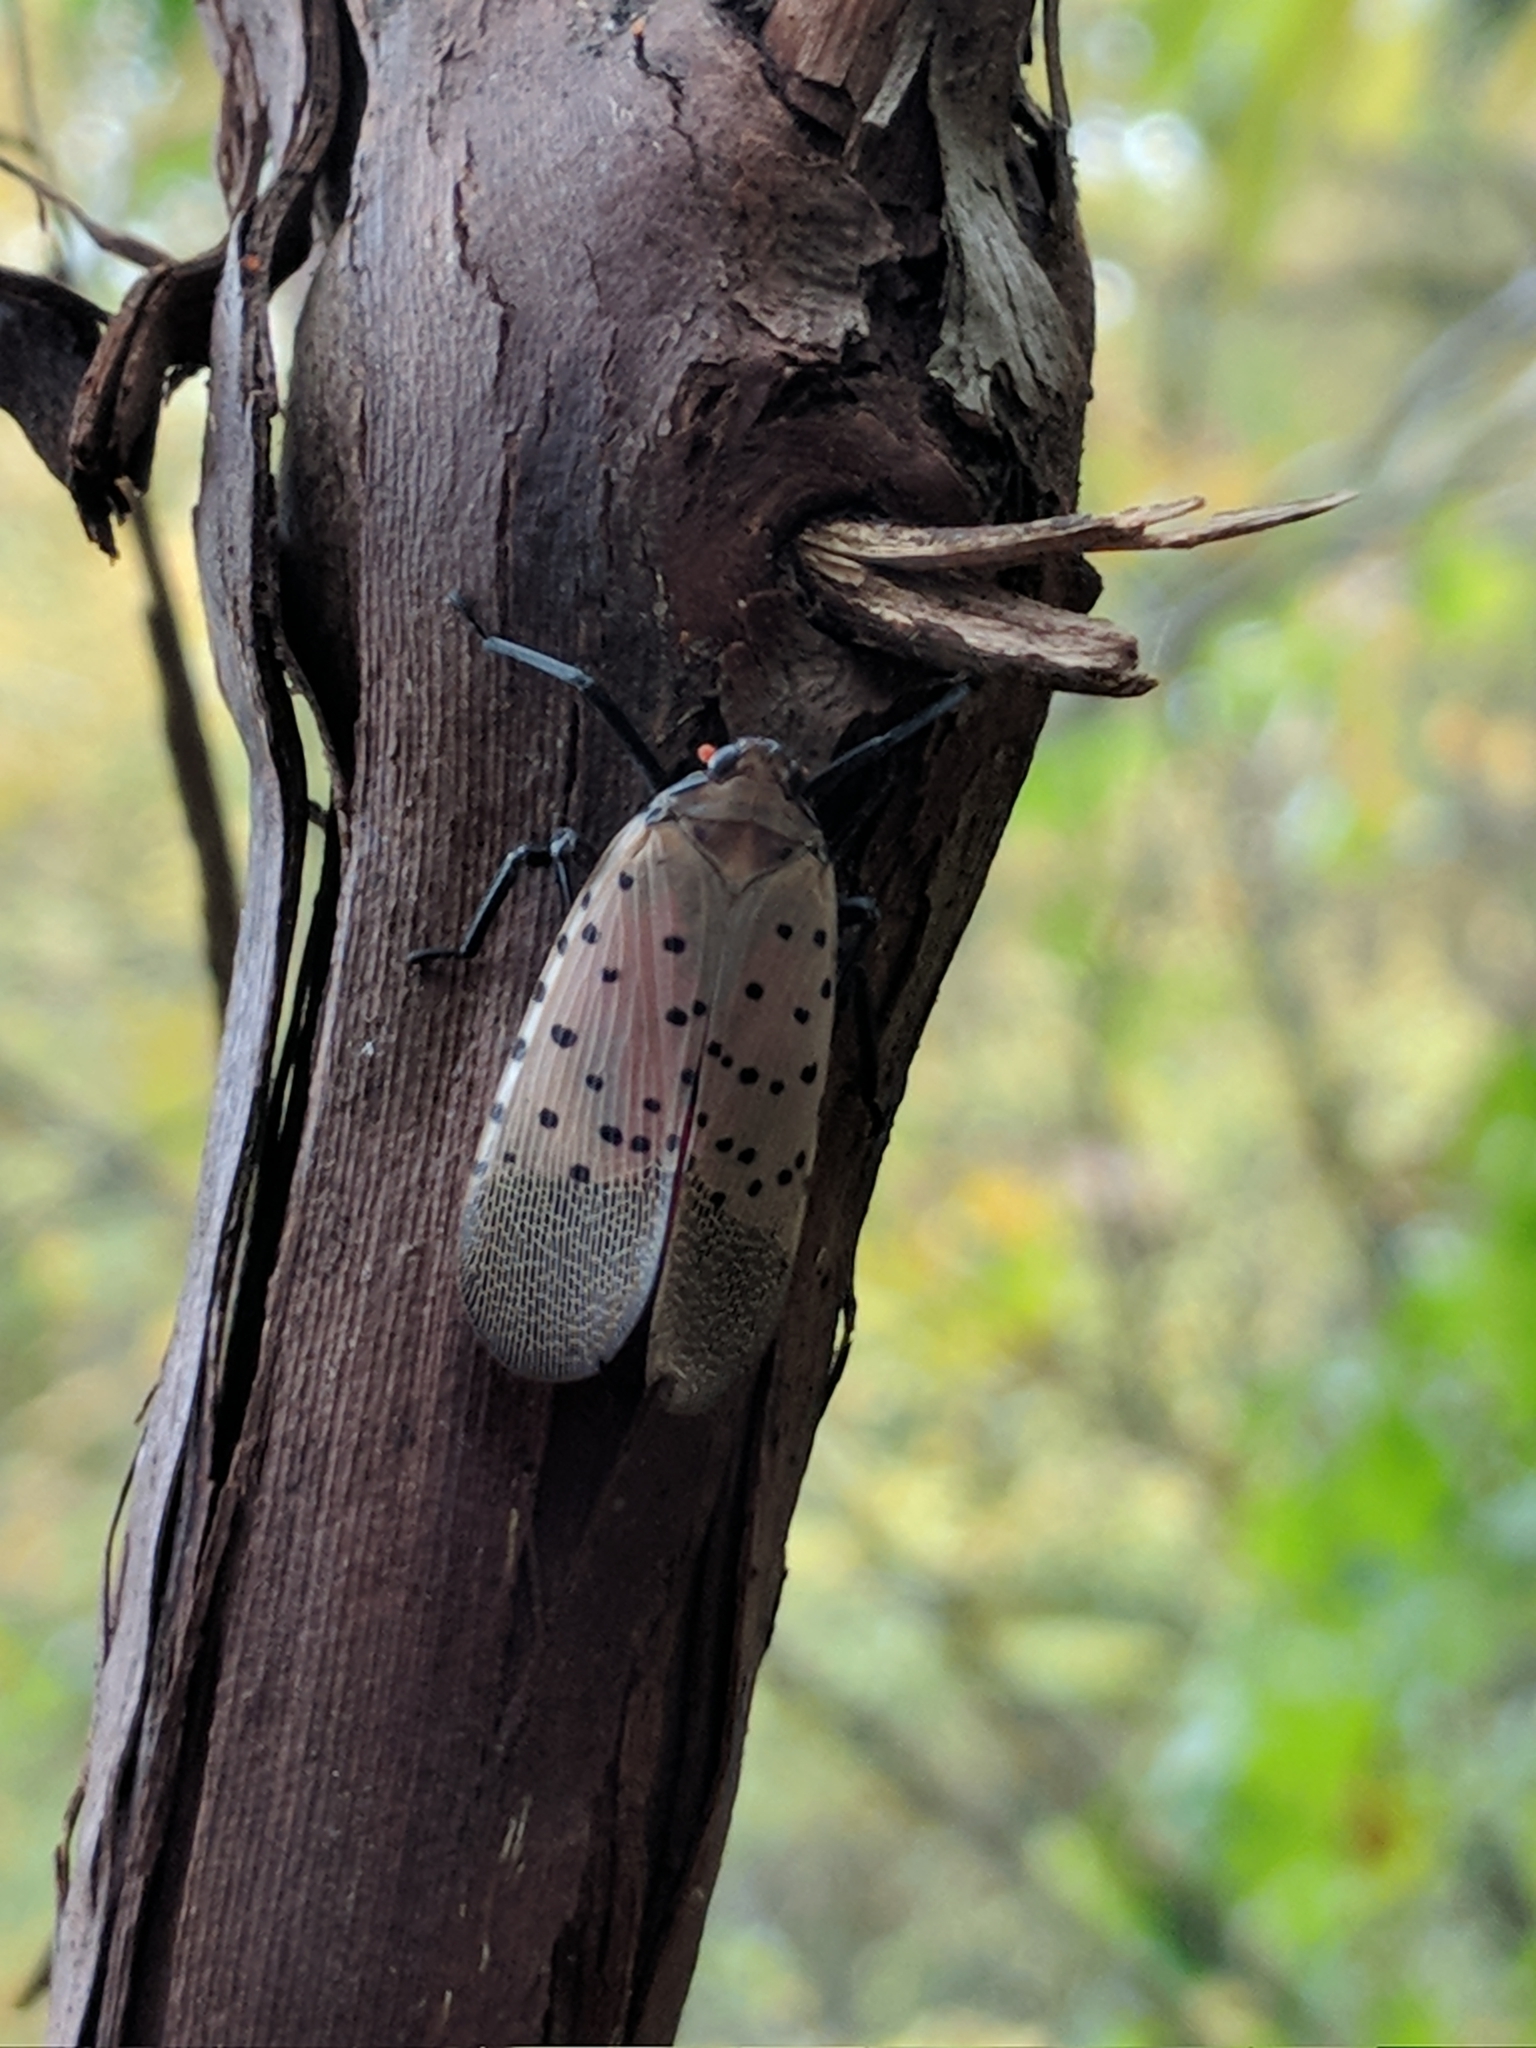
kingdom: Animalia
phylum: Arthropoda
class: Insecta
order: Hemiptera
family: Fulgoridae
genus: Lycorma
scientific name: Lycorma delicatula
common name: Spotted lanternfly
